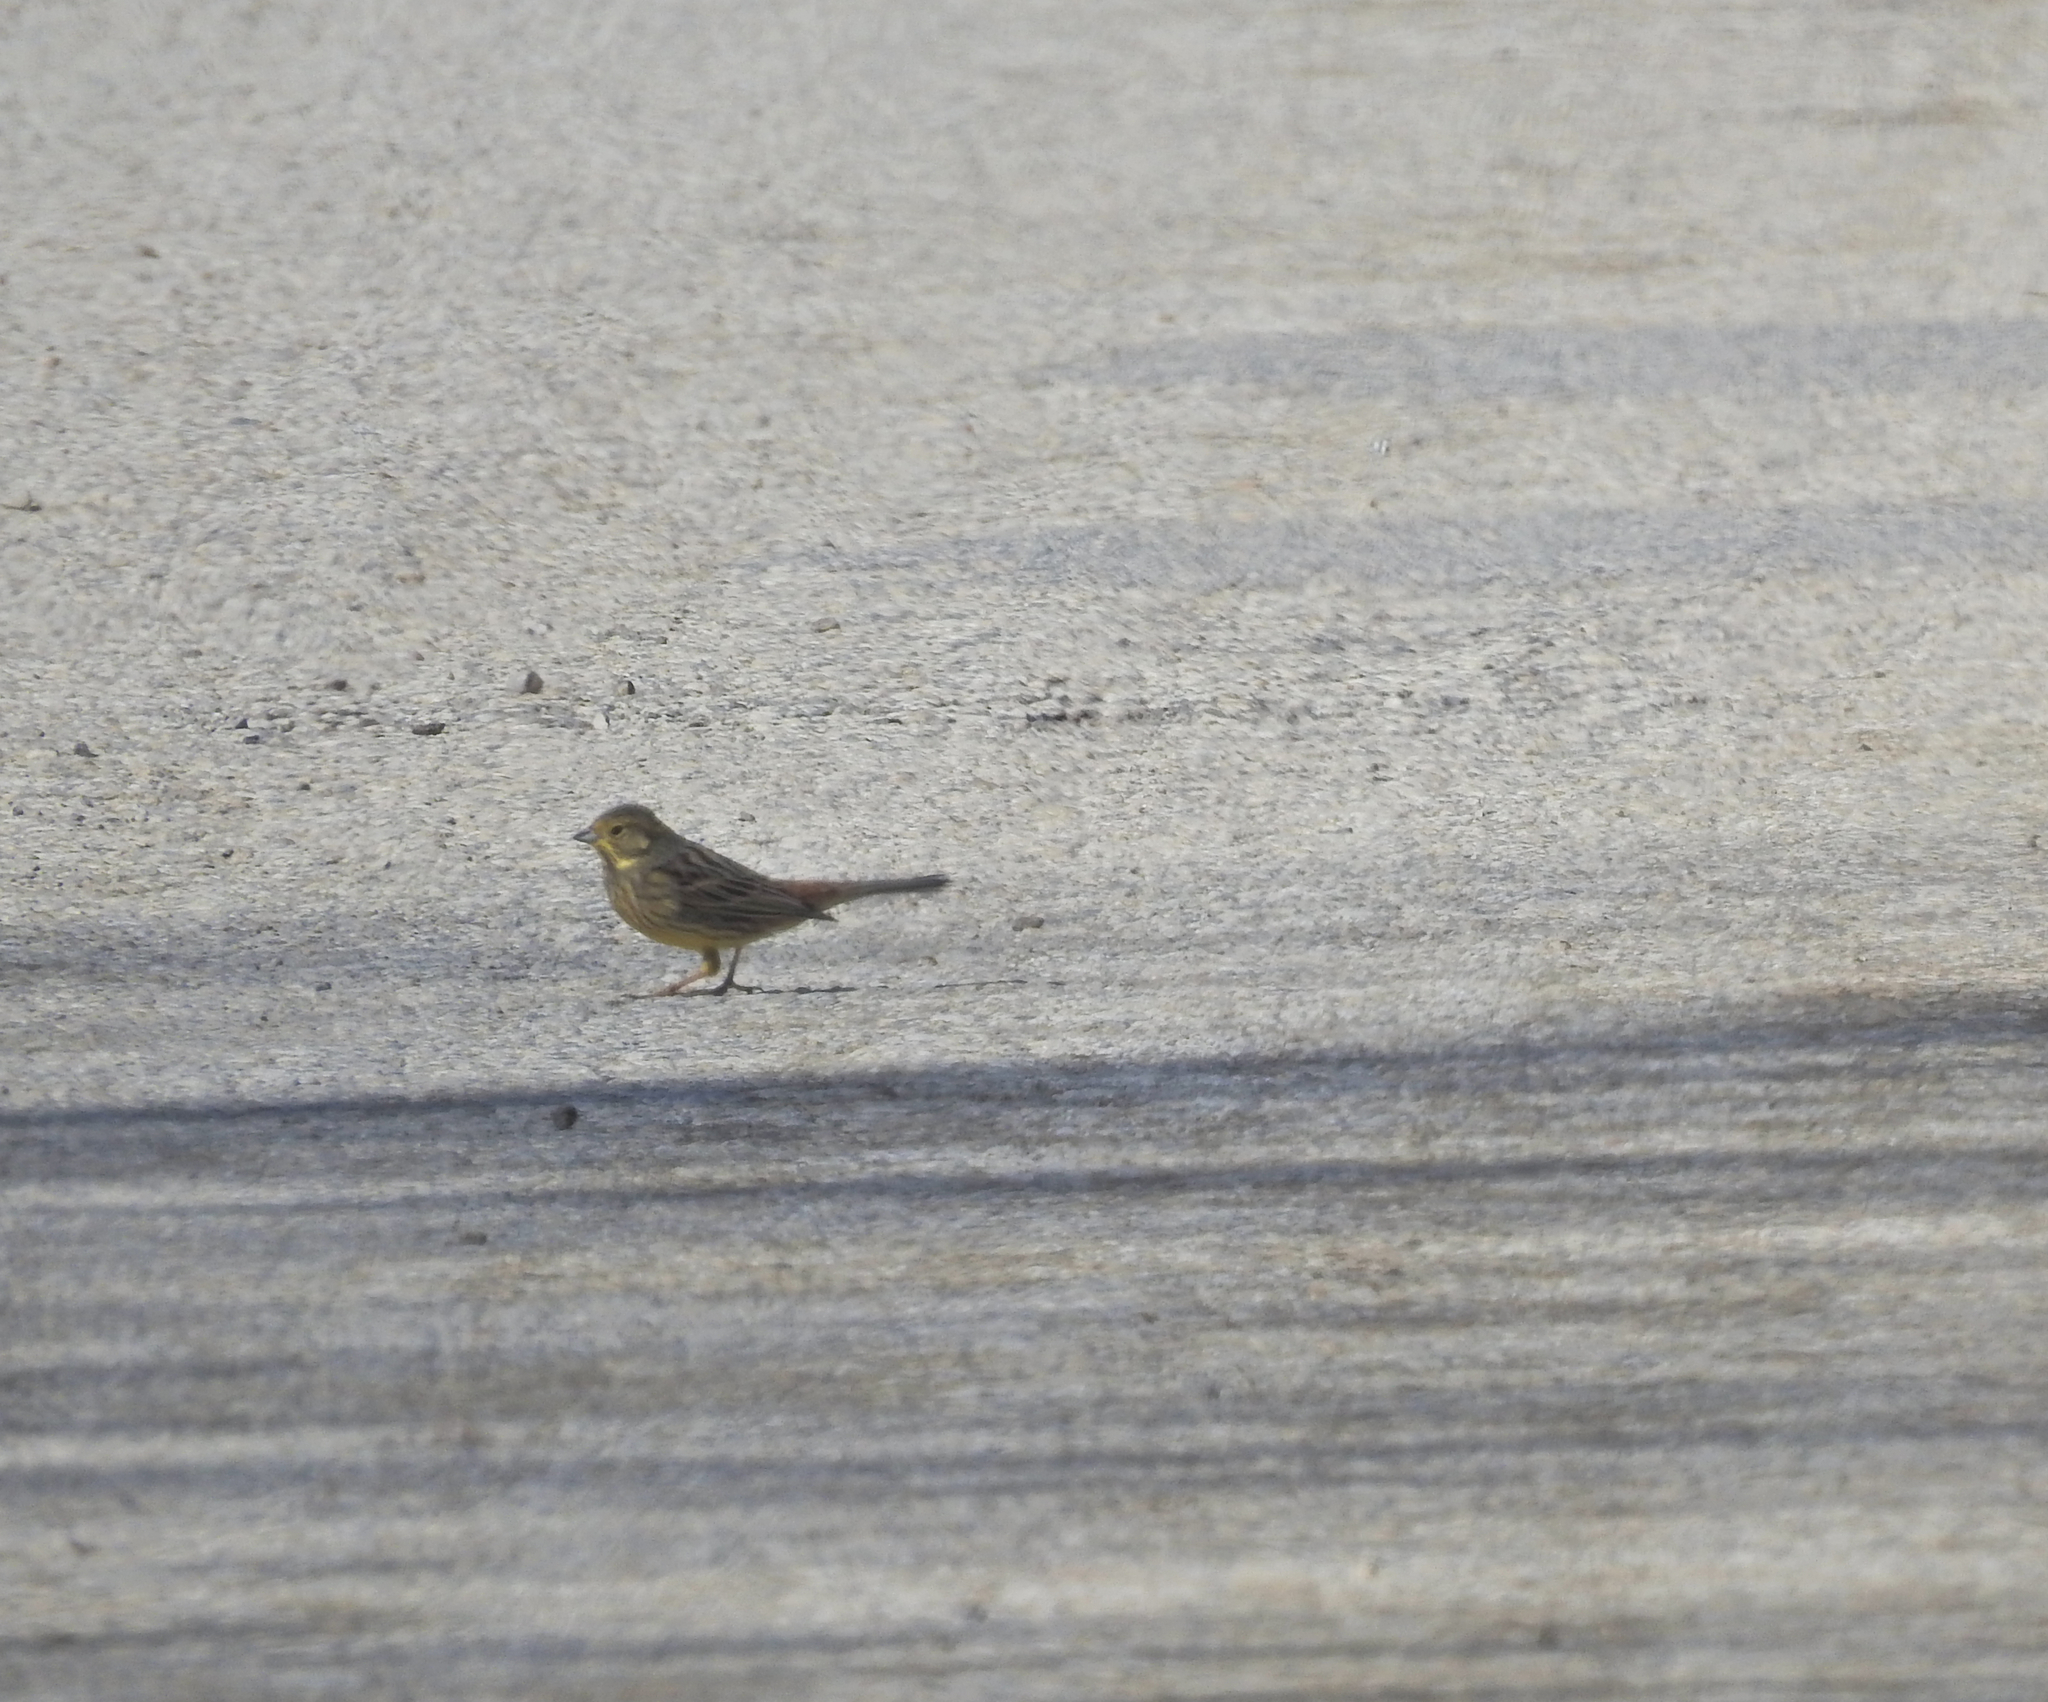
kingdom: Animalia
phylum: Chordata
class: Aves
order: Passeriformes
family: Emberizidae
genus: Emberiza
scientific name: Emberiza citrinella
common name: Yellowhammer
